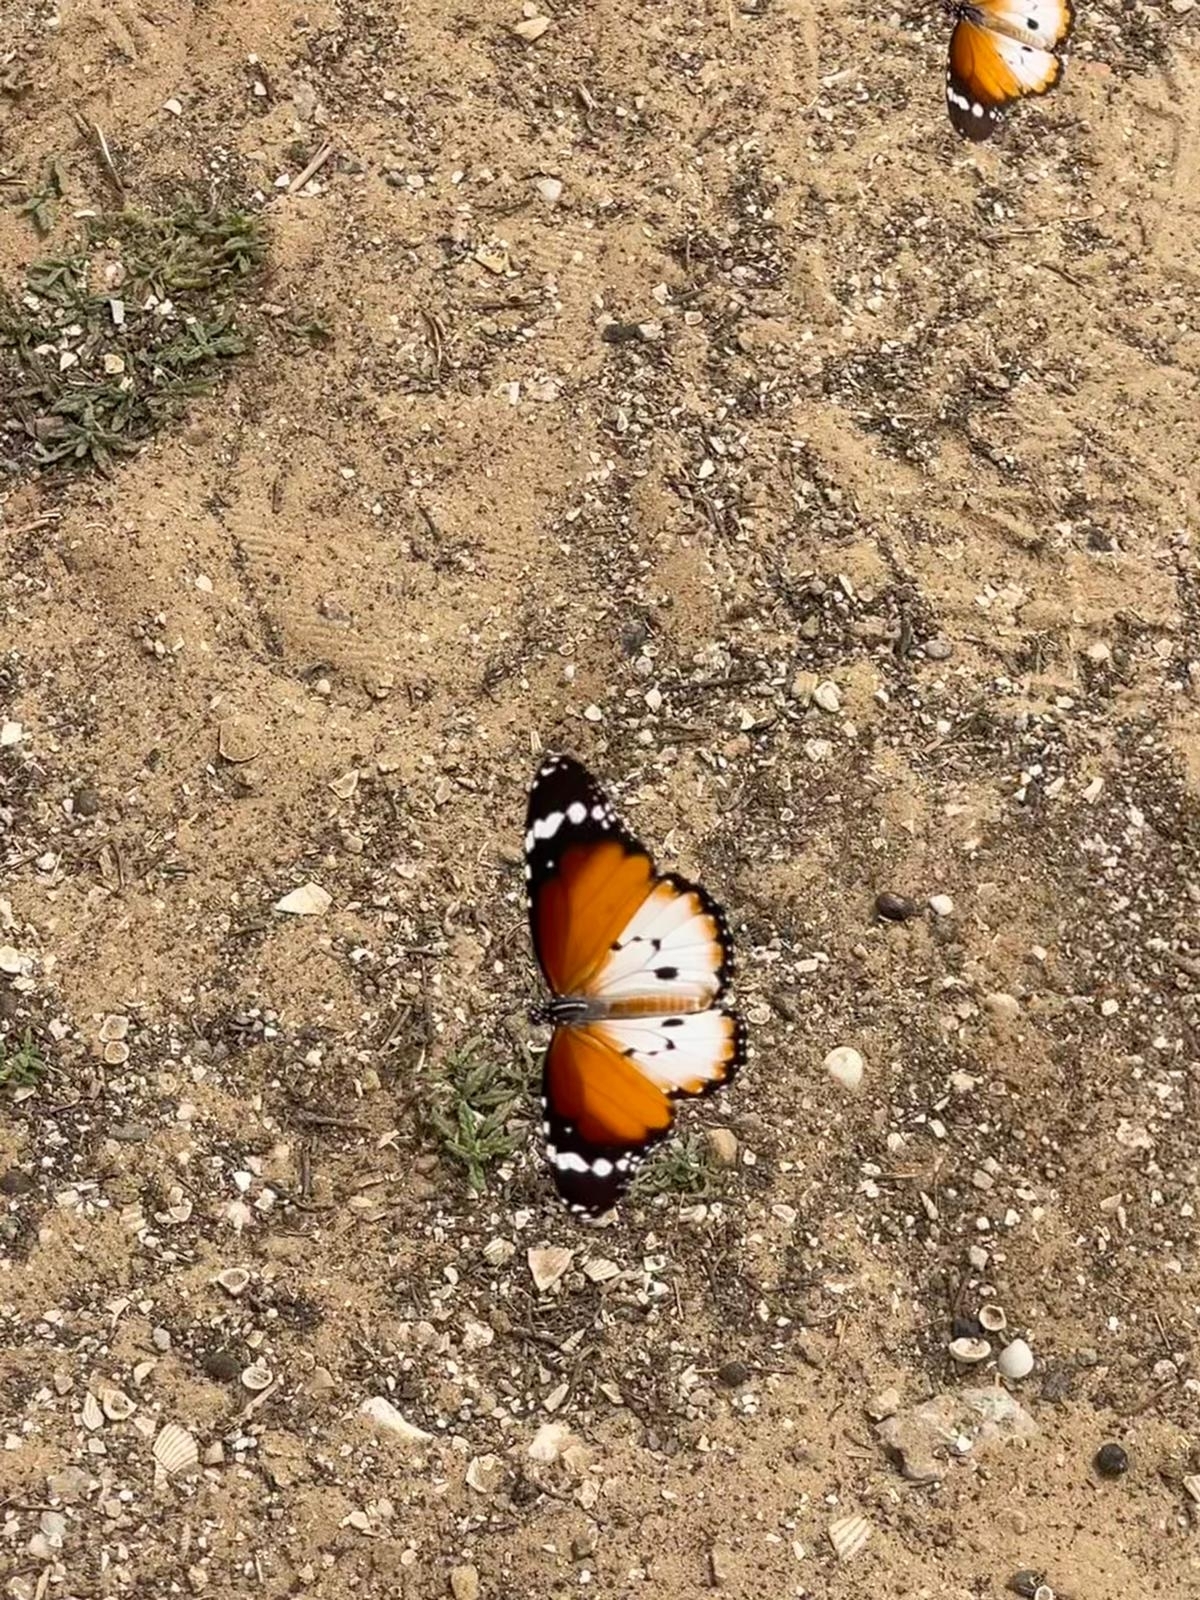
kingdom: Animalia
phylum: Arthropoda
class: Insecta
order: Lepidoptera
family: Nymphalidae
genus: Danaus
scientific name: Danaus chrysippus
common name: Plain tiger
